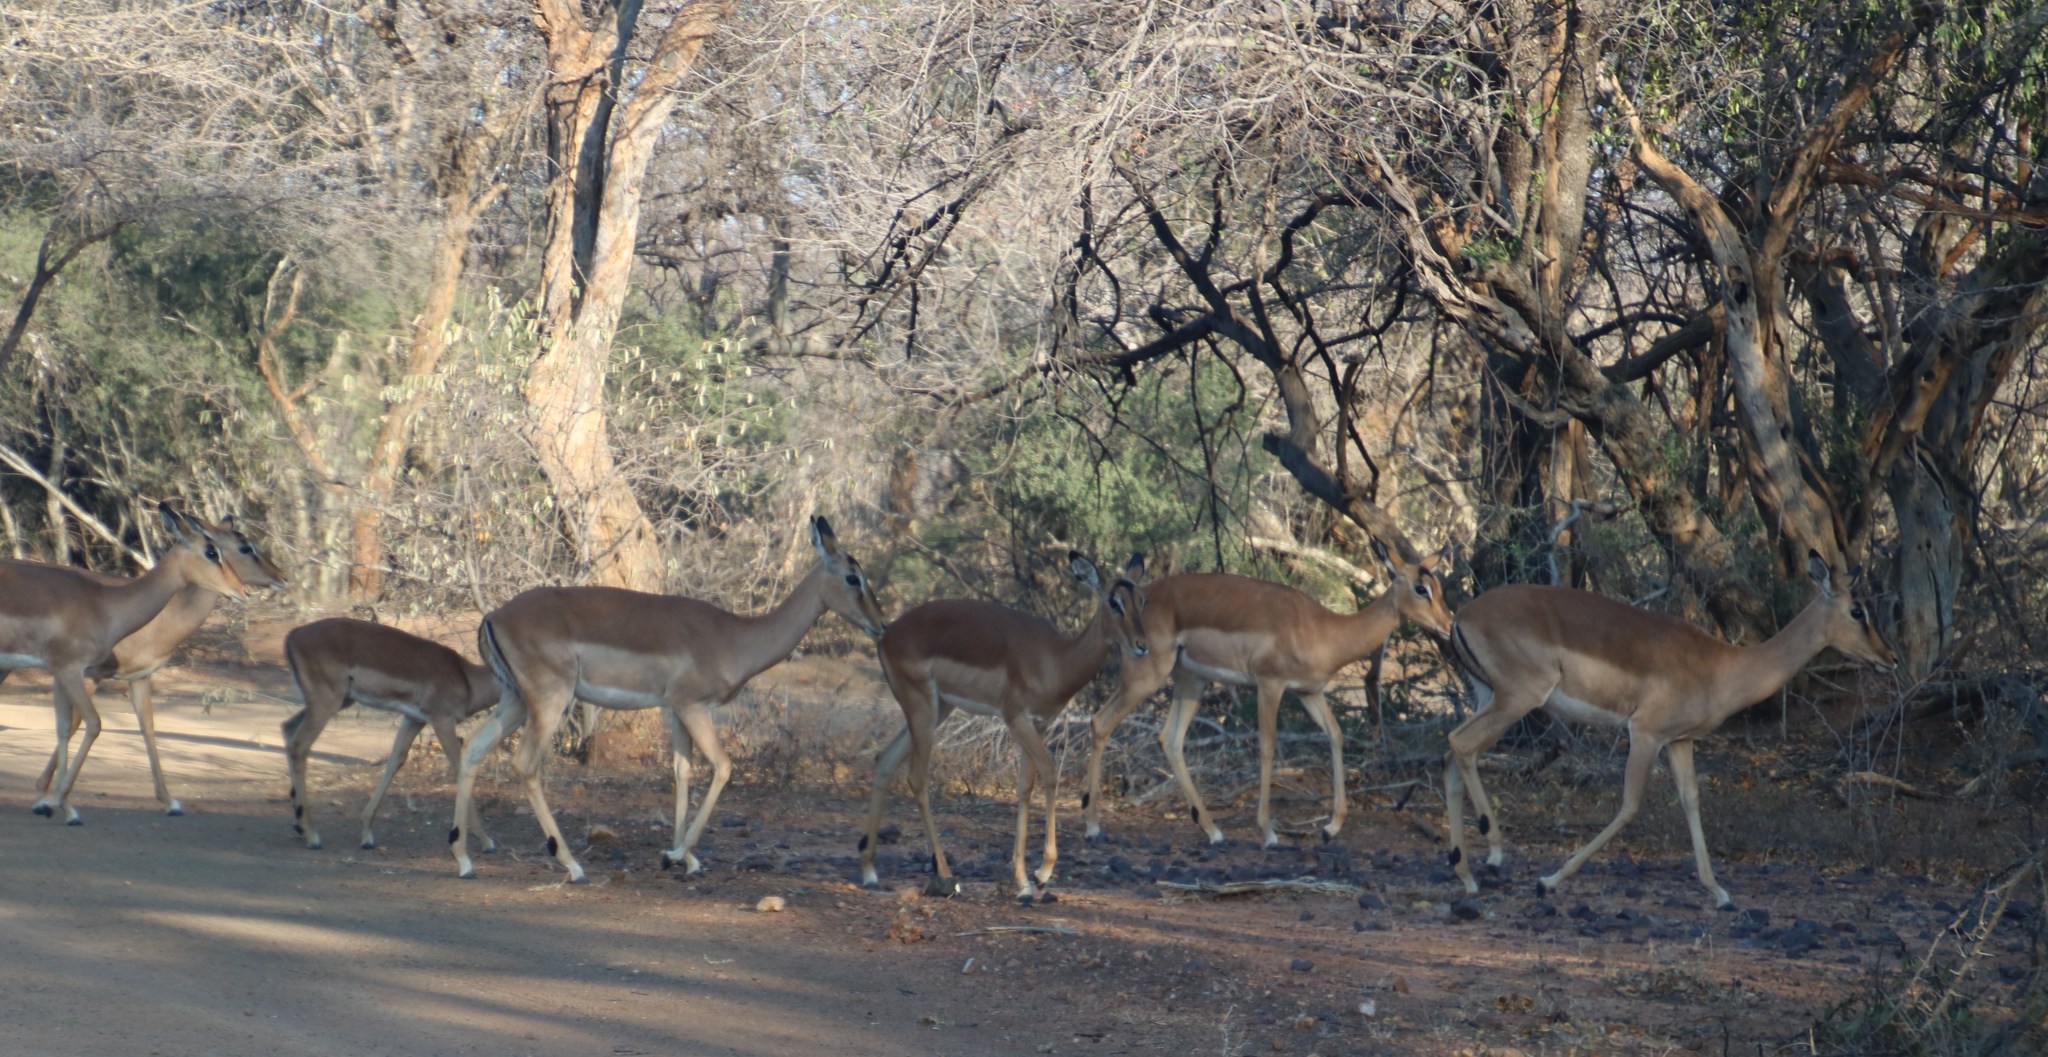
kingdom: Animalia
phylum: Chordata
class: Mammalia
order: Artiodactyla
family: Bovidae
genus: Aepyceros
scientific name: Aepyceros melampus
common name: Impala
